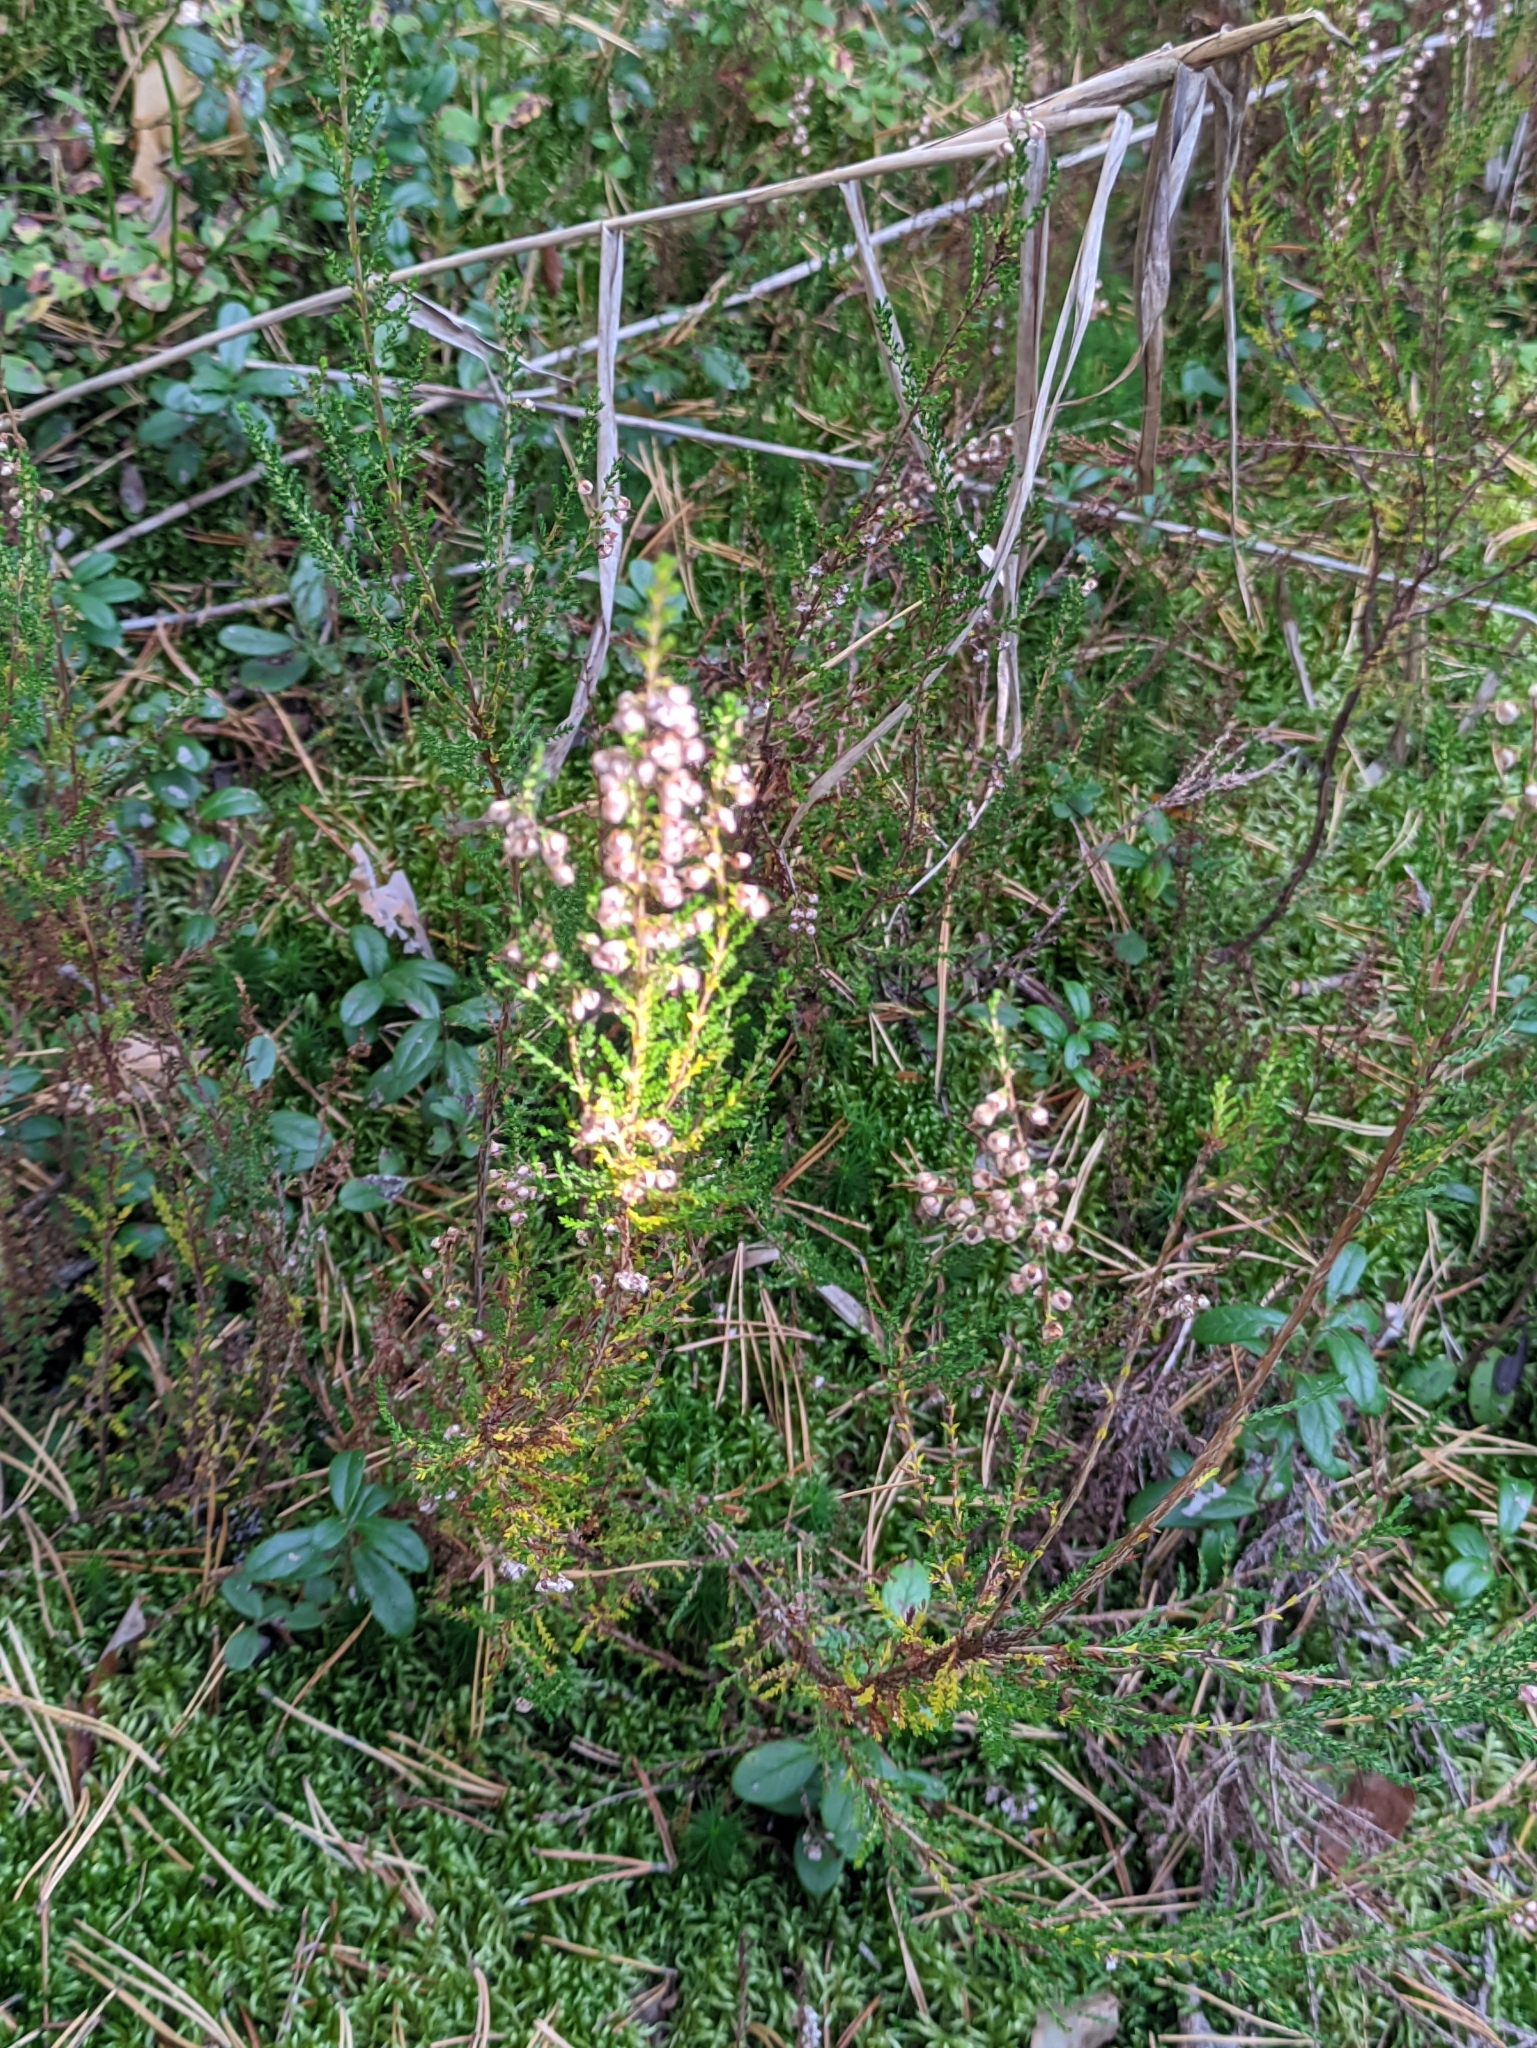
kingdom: Plantae
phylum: Tracheophyta
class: Magnoliopsida
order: Ericales
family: Ericaceae
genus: Calluna
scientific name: Calluna vulgaris
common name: Heather
